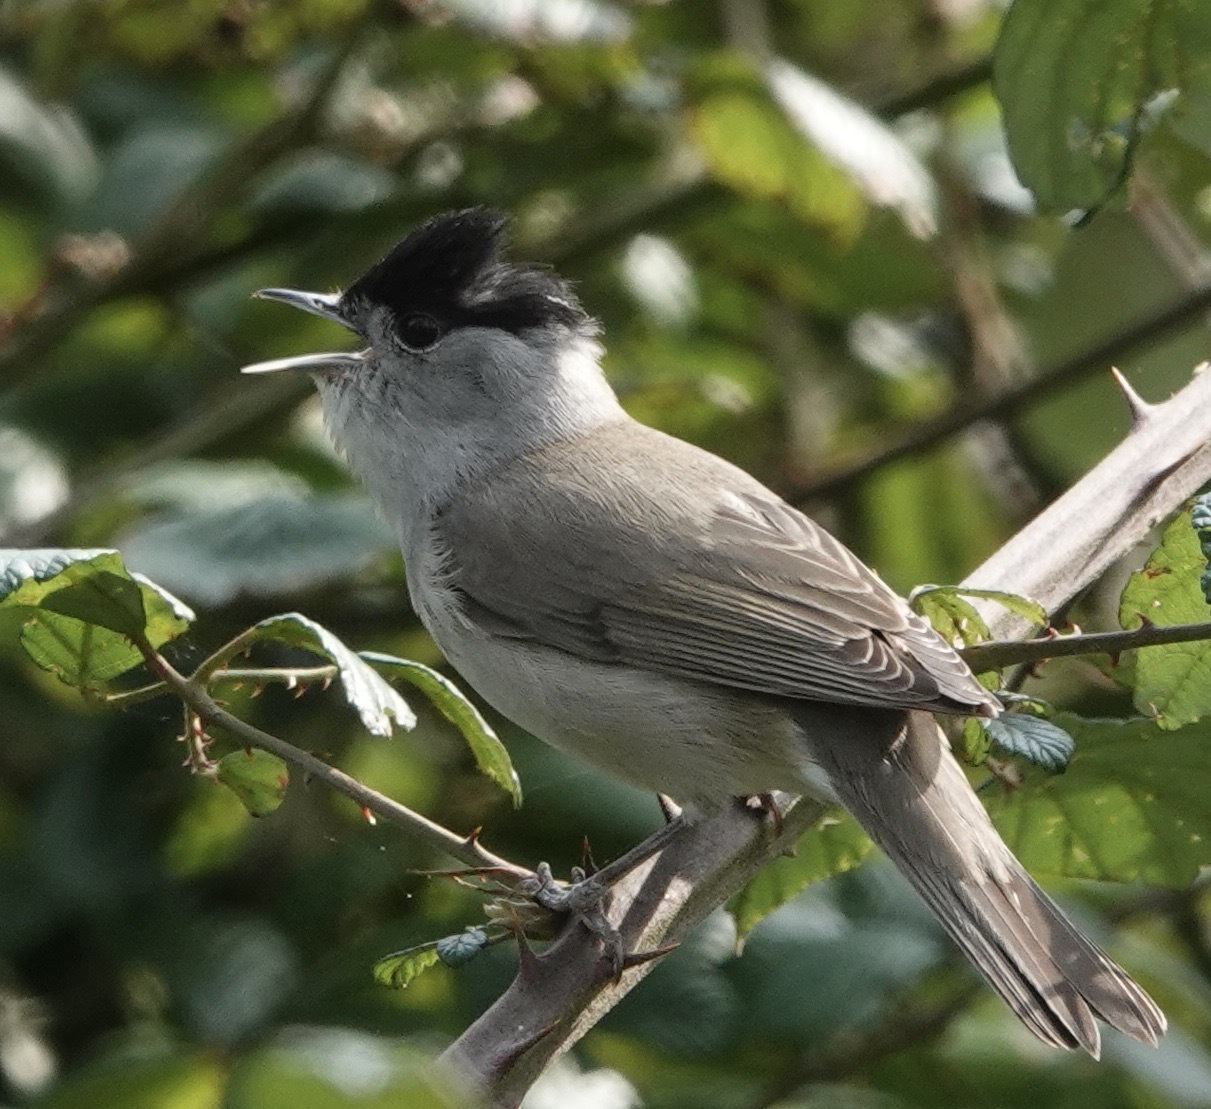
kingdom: Animalia
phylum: Chordata
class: Aves
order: Passeriformes
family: Sylviidae
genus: Sylvia
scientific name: Sylvia atricapilla
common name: Eurasian blackcap
